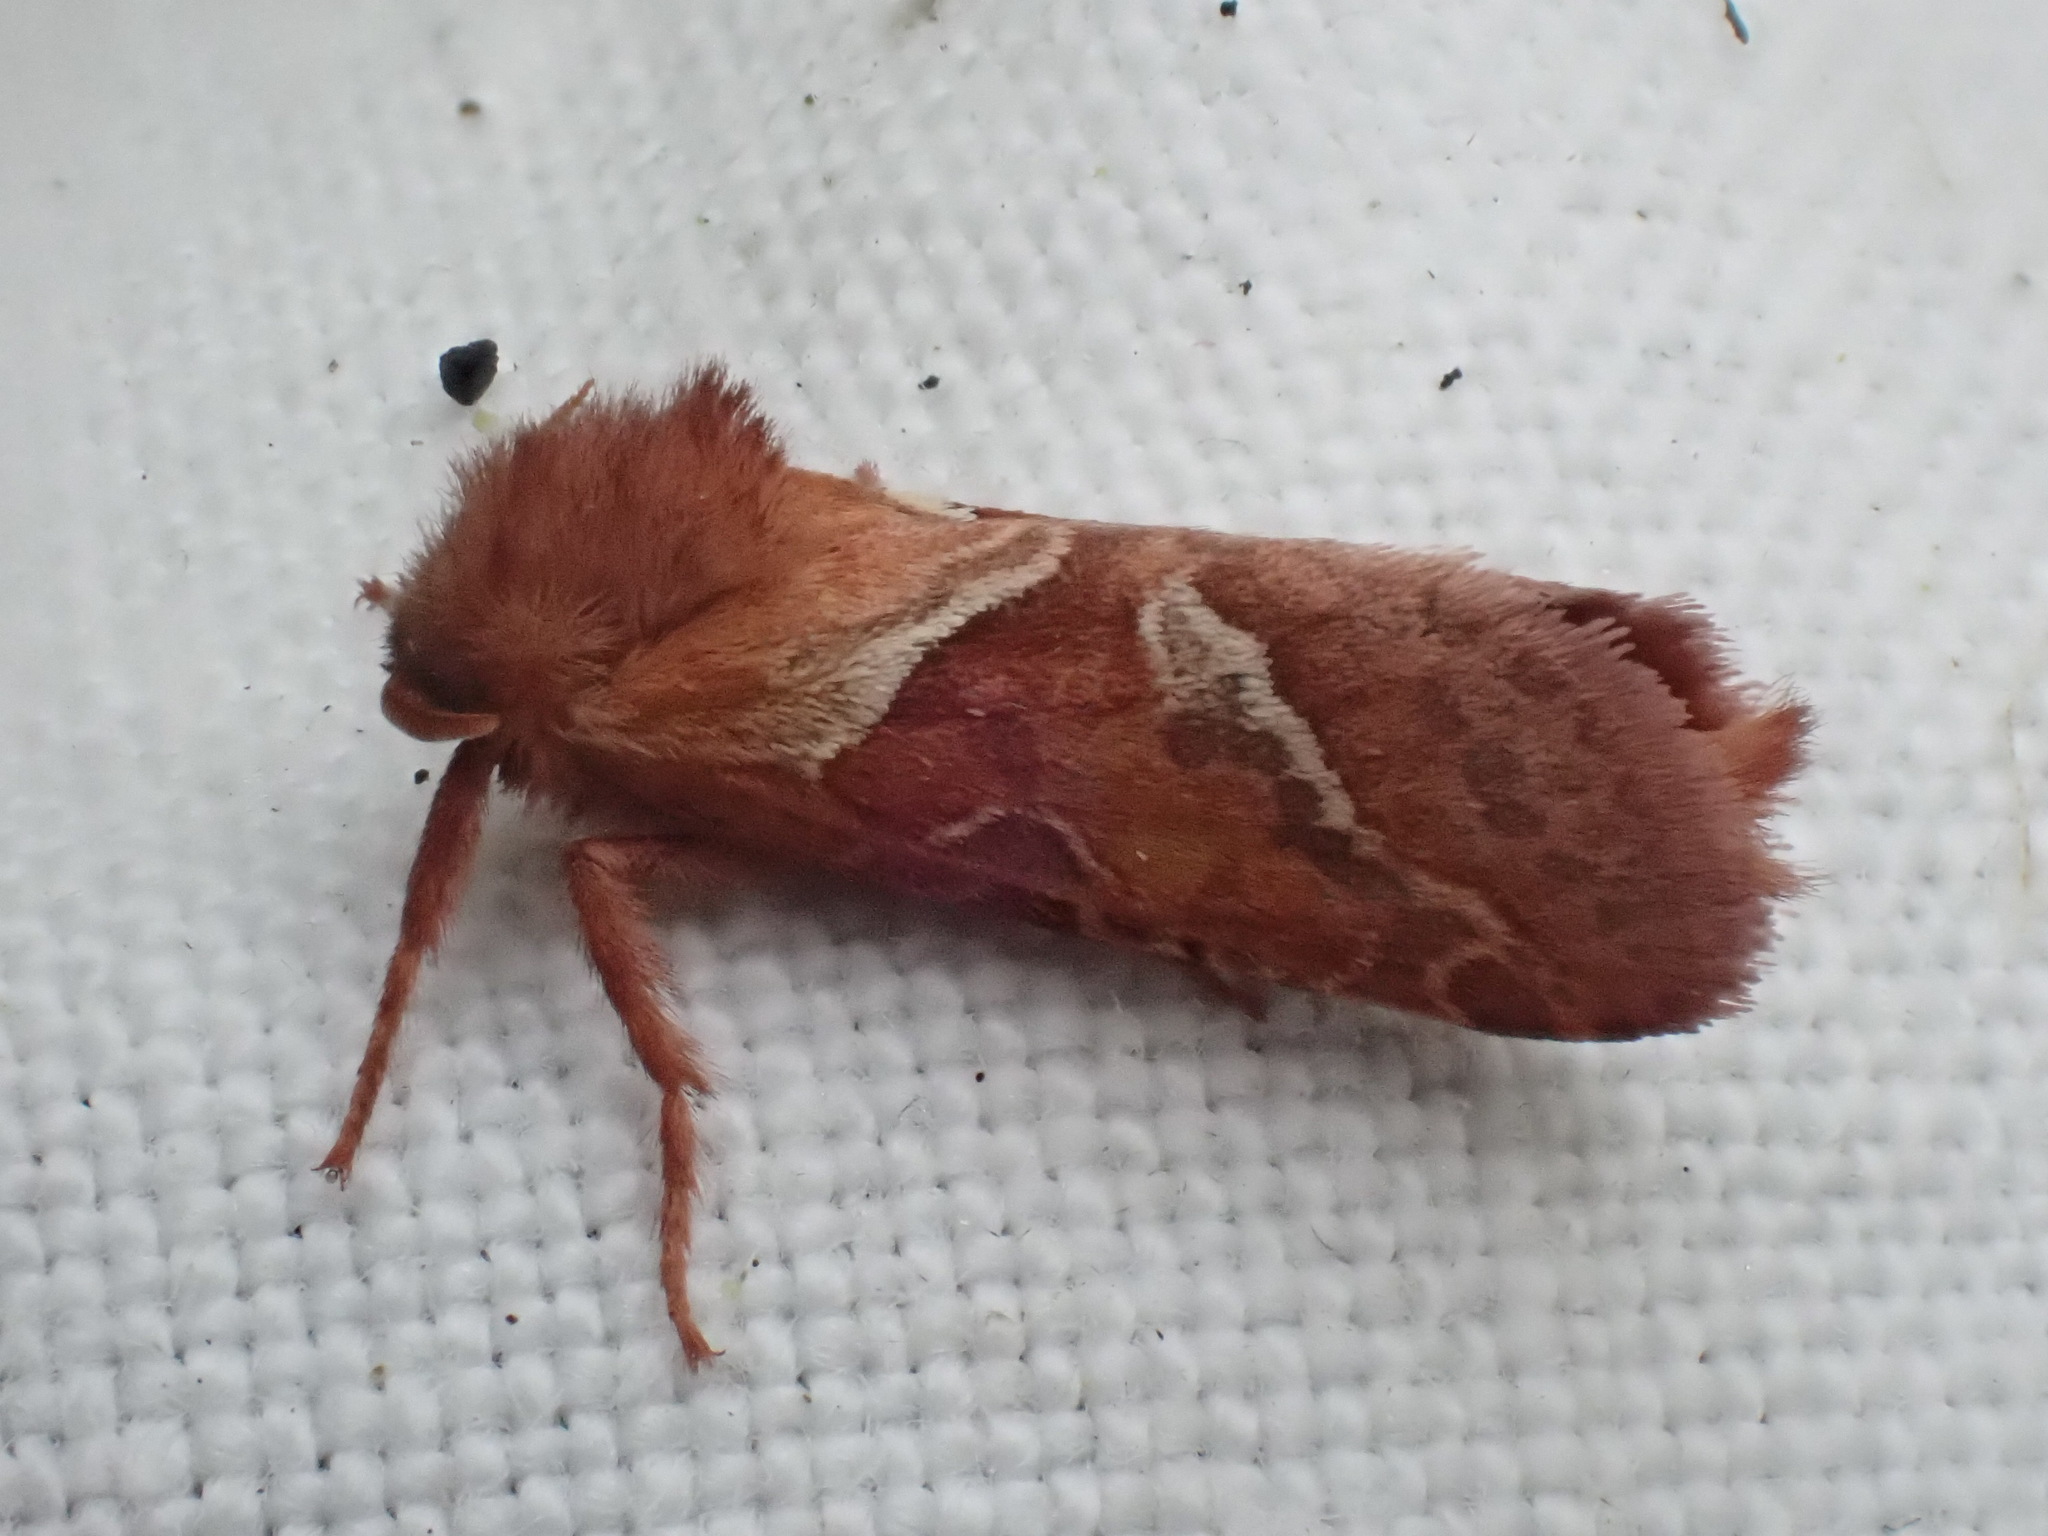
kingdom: Animalia
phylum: Arthropoda
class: Insecta
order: Lepidoptera
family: Hepialidae
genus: Triodia
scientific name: Triodia sylvina
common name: Orange swift
